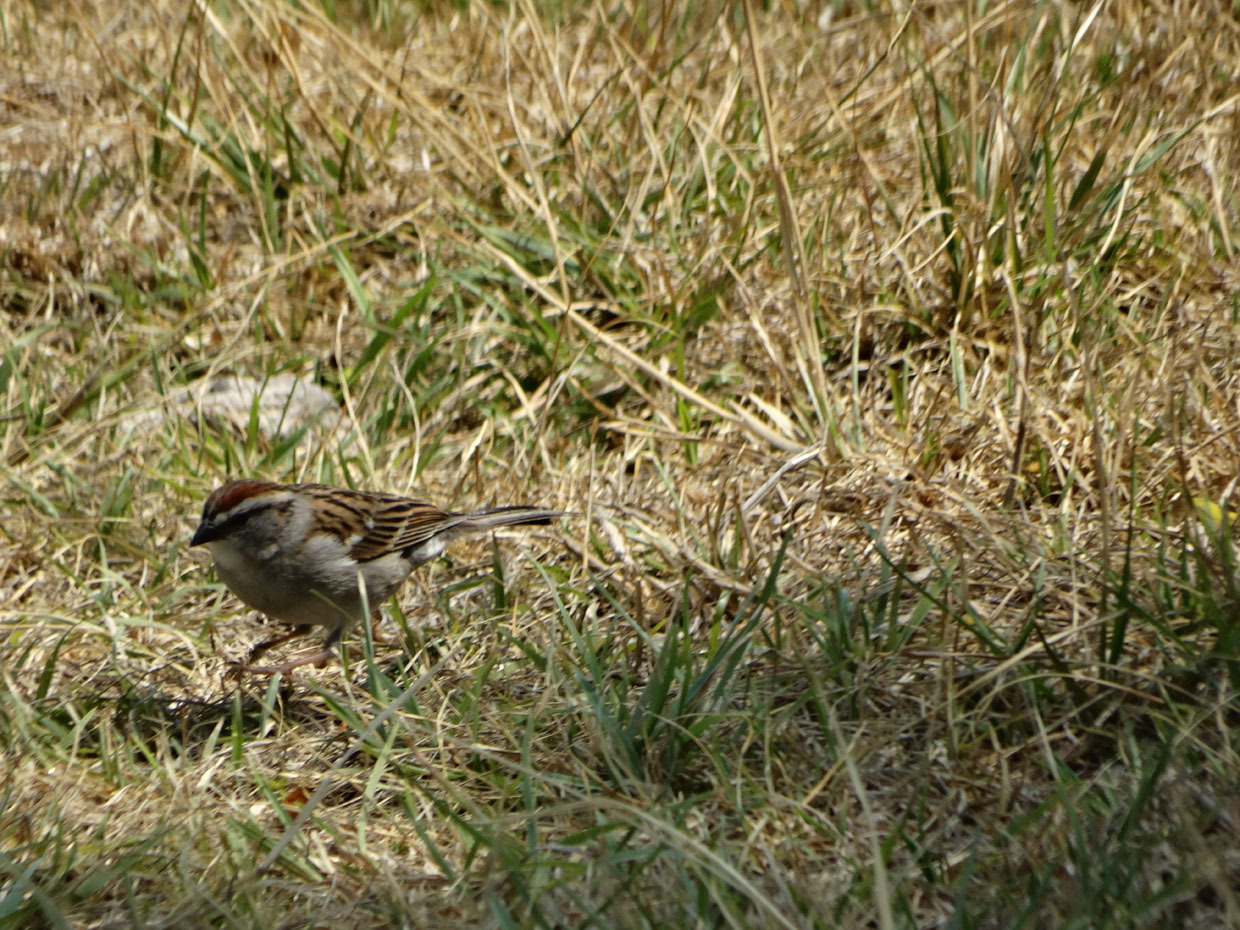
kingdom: Animalia
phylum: Chordata
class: Aves
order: Passeriformes
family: Passerellidae
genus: Spizella
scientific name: Spizella passerina
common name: Chipping sparrow
